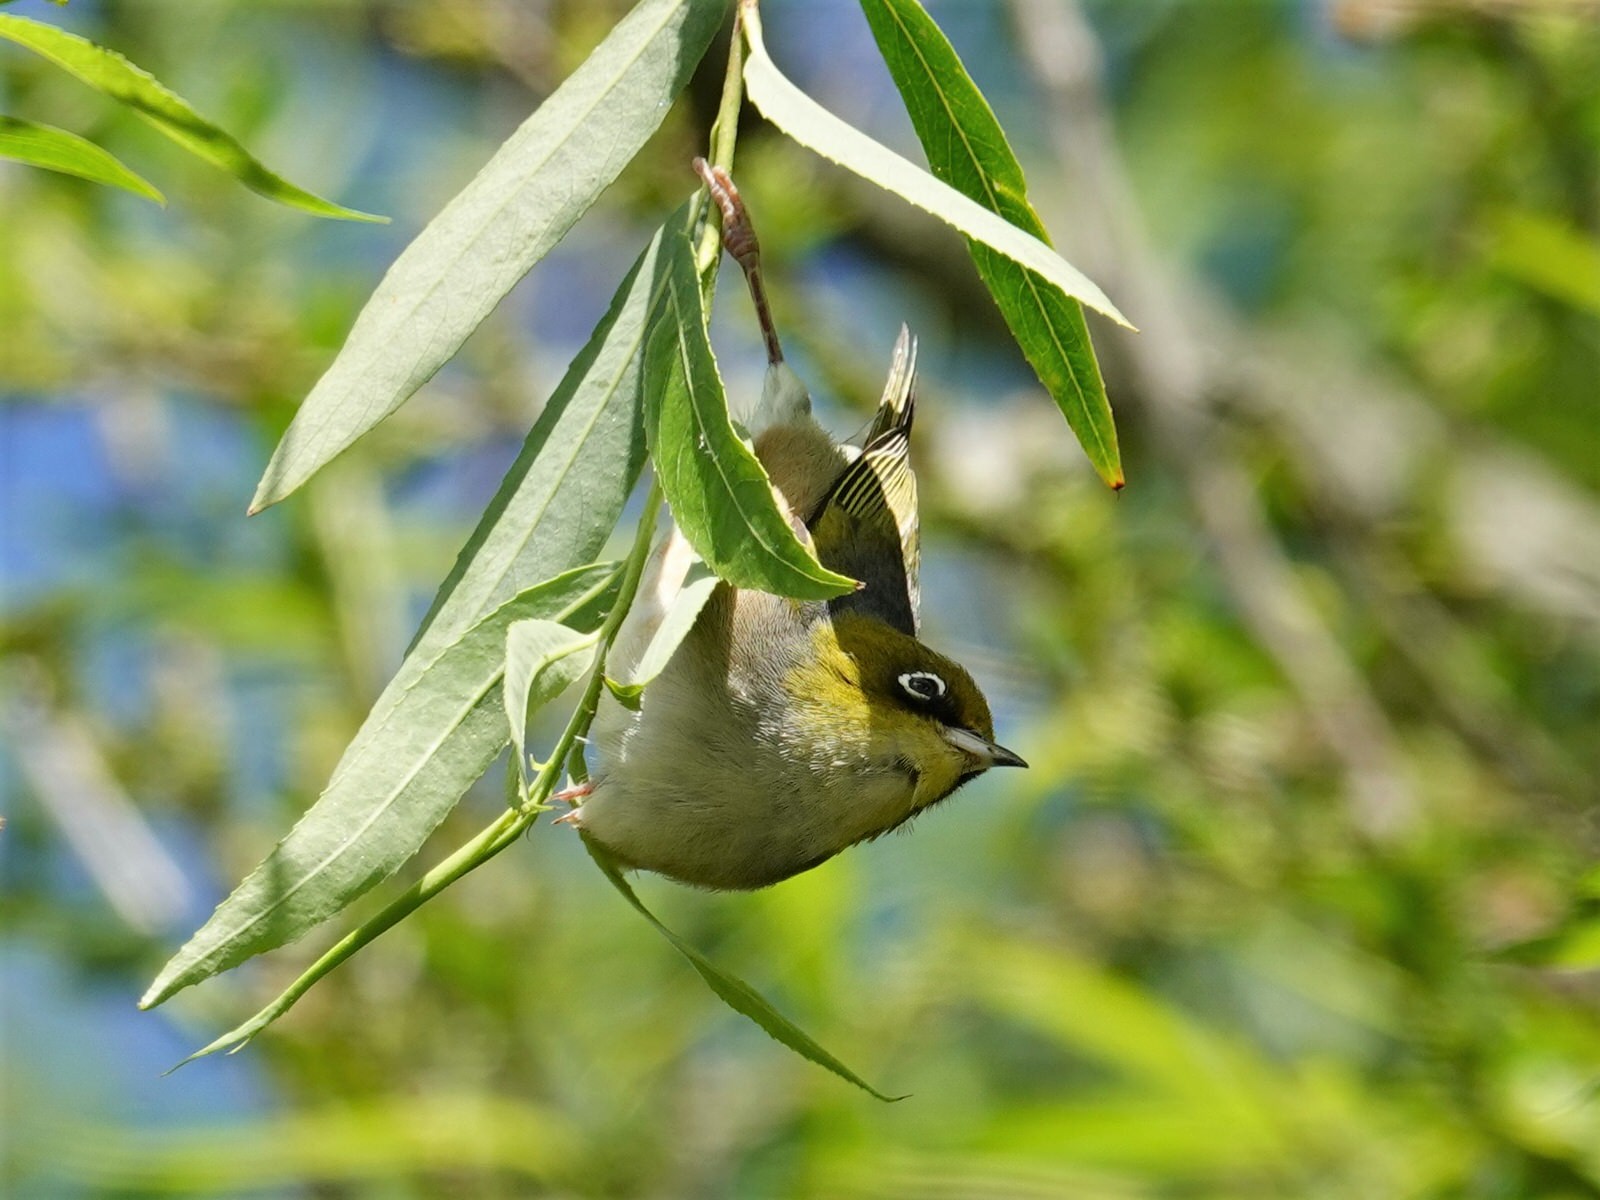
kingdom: Animalia
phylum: Chordata
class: Aves
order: Passeriformes
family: Zosteropidae
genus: Zosterops
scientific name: Zosterops lateralis
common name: Silvereye
